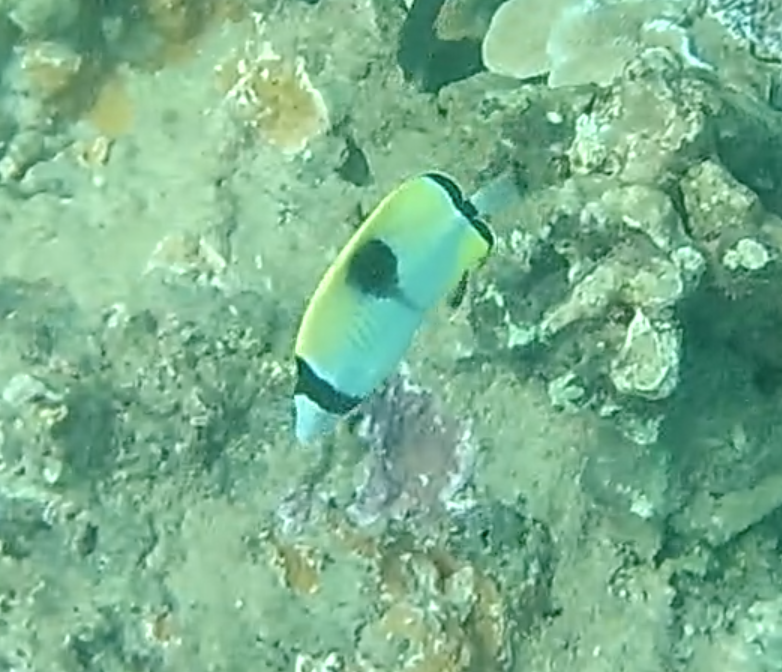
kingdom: Animalia
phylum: Chordata
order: Perciformes
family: Chaetodontidae
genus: Chaetodon
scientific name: Chaetodon unimaculatus
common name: Teardrop butterflyfish
